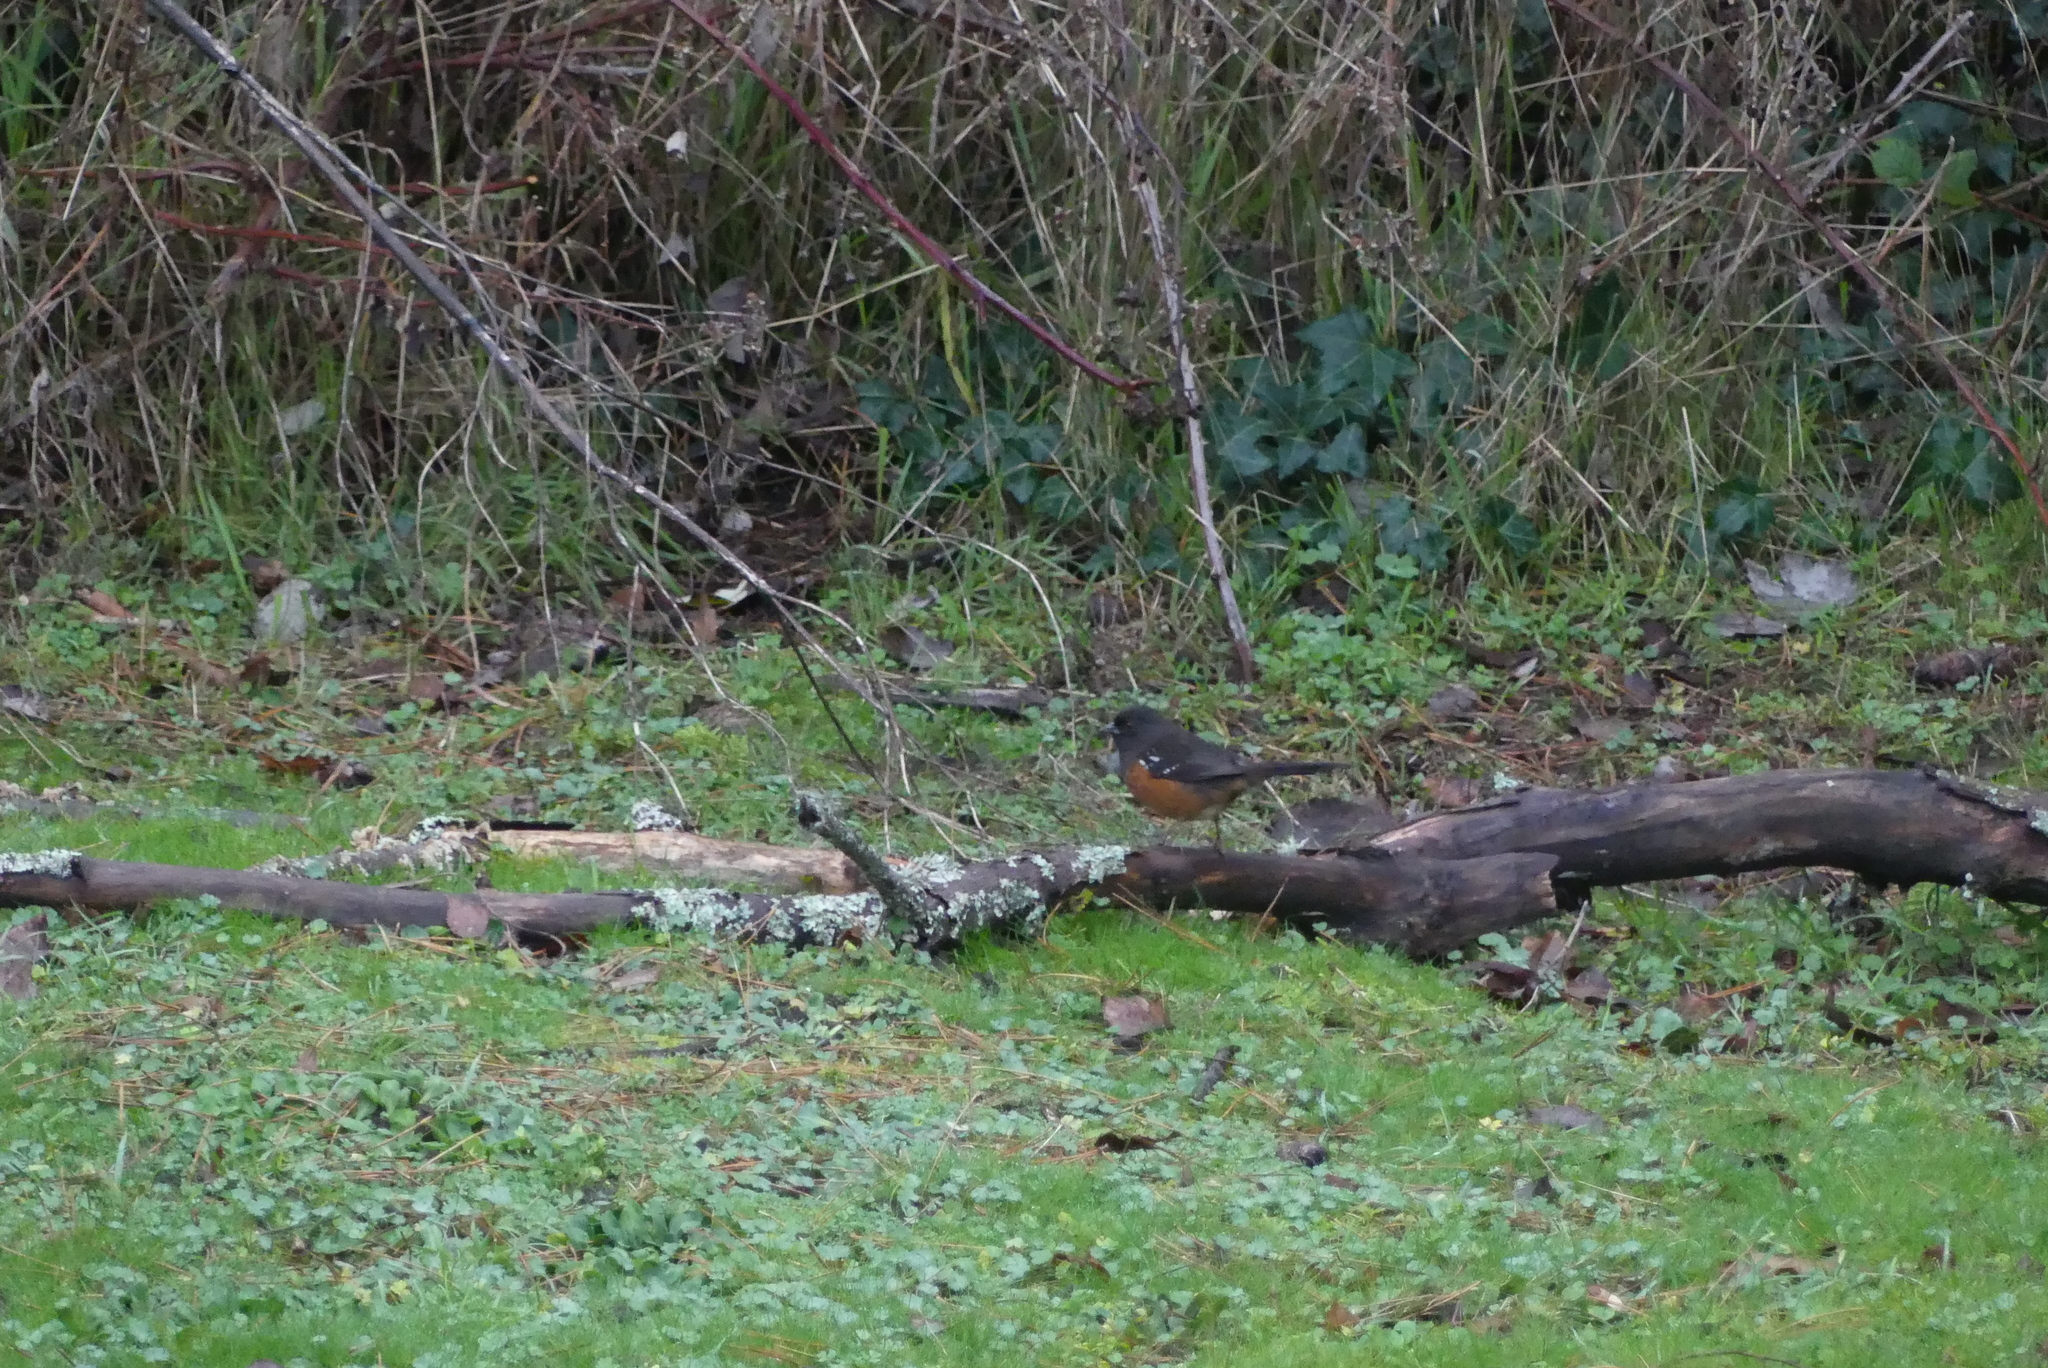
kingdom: Animalia
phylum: Chordata
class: Aves
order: Passeriformes
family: Passerellidae
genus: Pipilo
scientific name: Pipilo maculatus
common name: Spotted towhee
